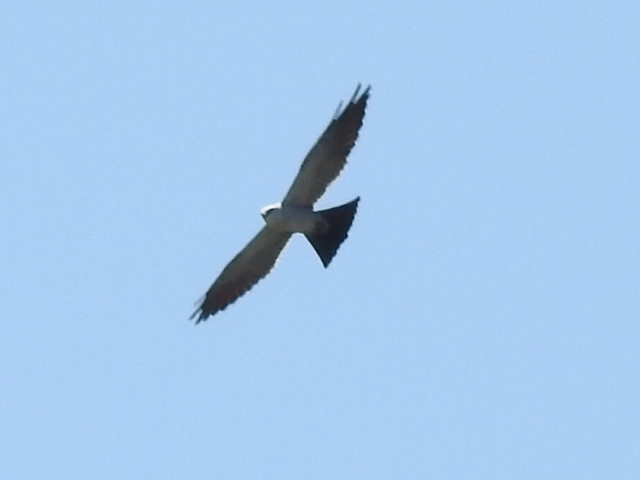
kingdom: Animalia
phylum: Chordata
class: Aves
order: Accipitriformes
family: Accipitridae
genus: Ictinia
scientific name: Ictinia mississippiensis
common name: Mississippi kite
